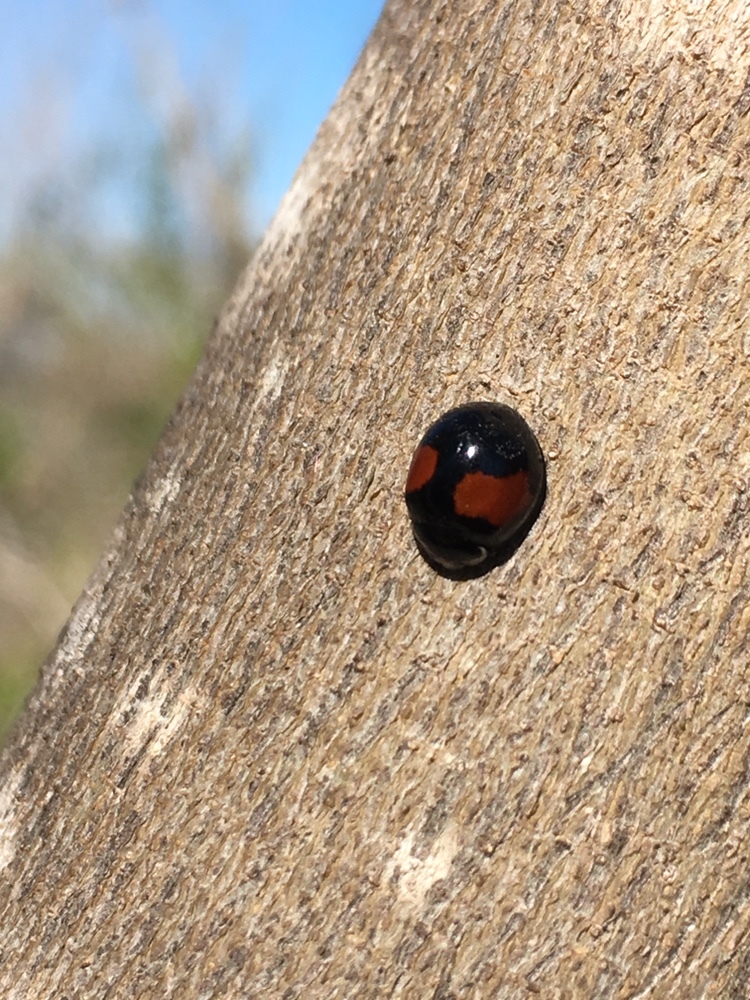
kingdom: Animalia
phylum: Arthropoda
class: Insecta
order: Coleoptera
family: Coccinellidae
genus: Olla
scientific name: Olla v-nigrum
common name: Ashy gray lady beetle
